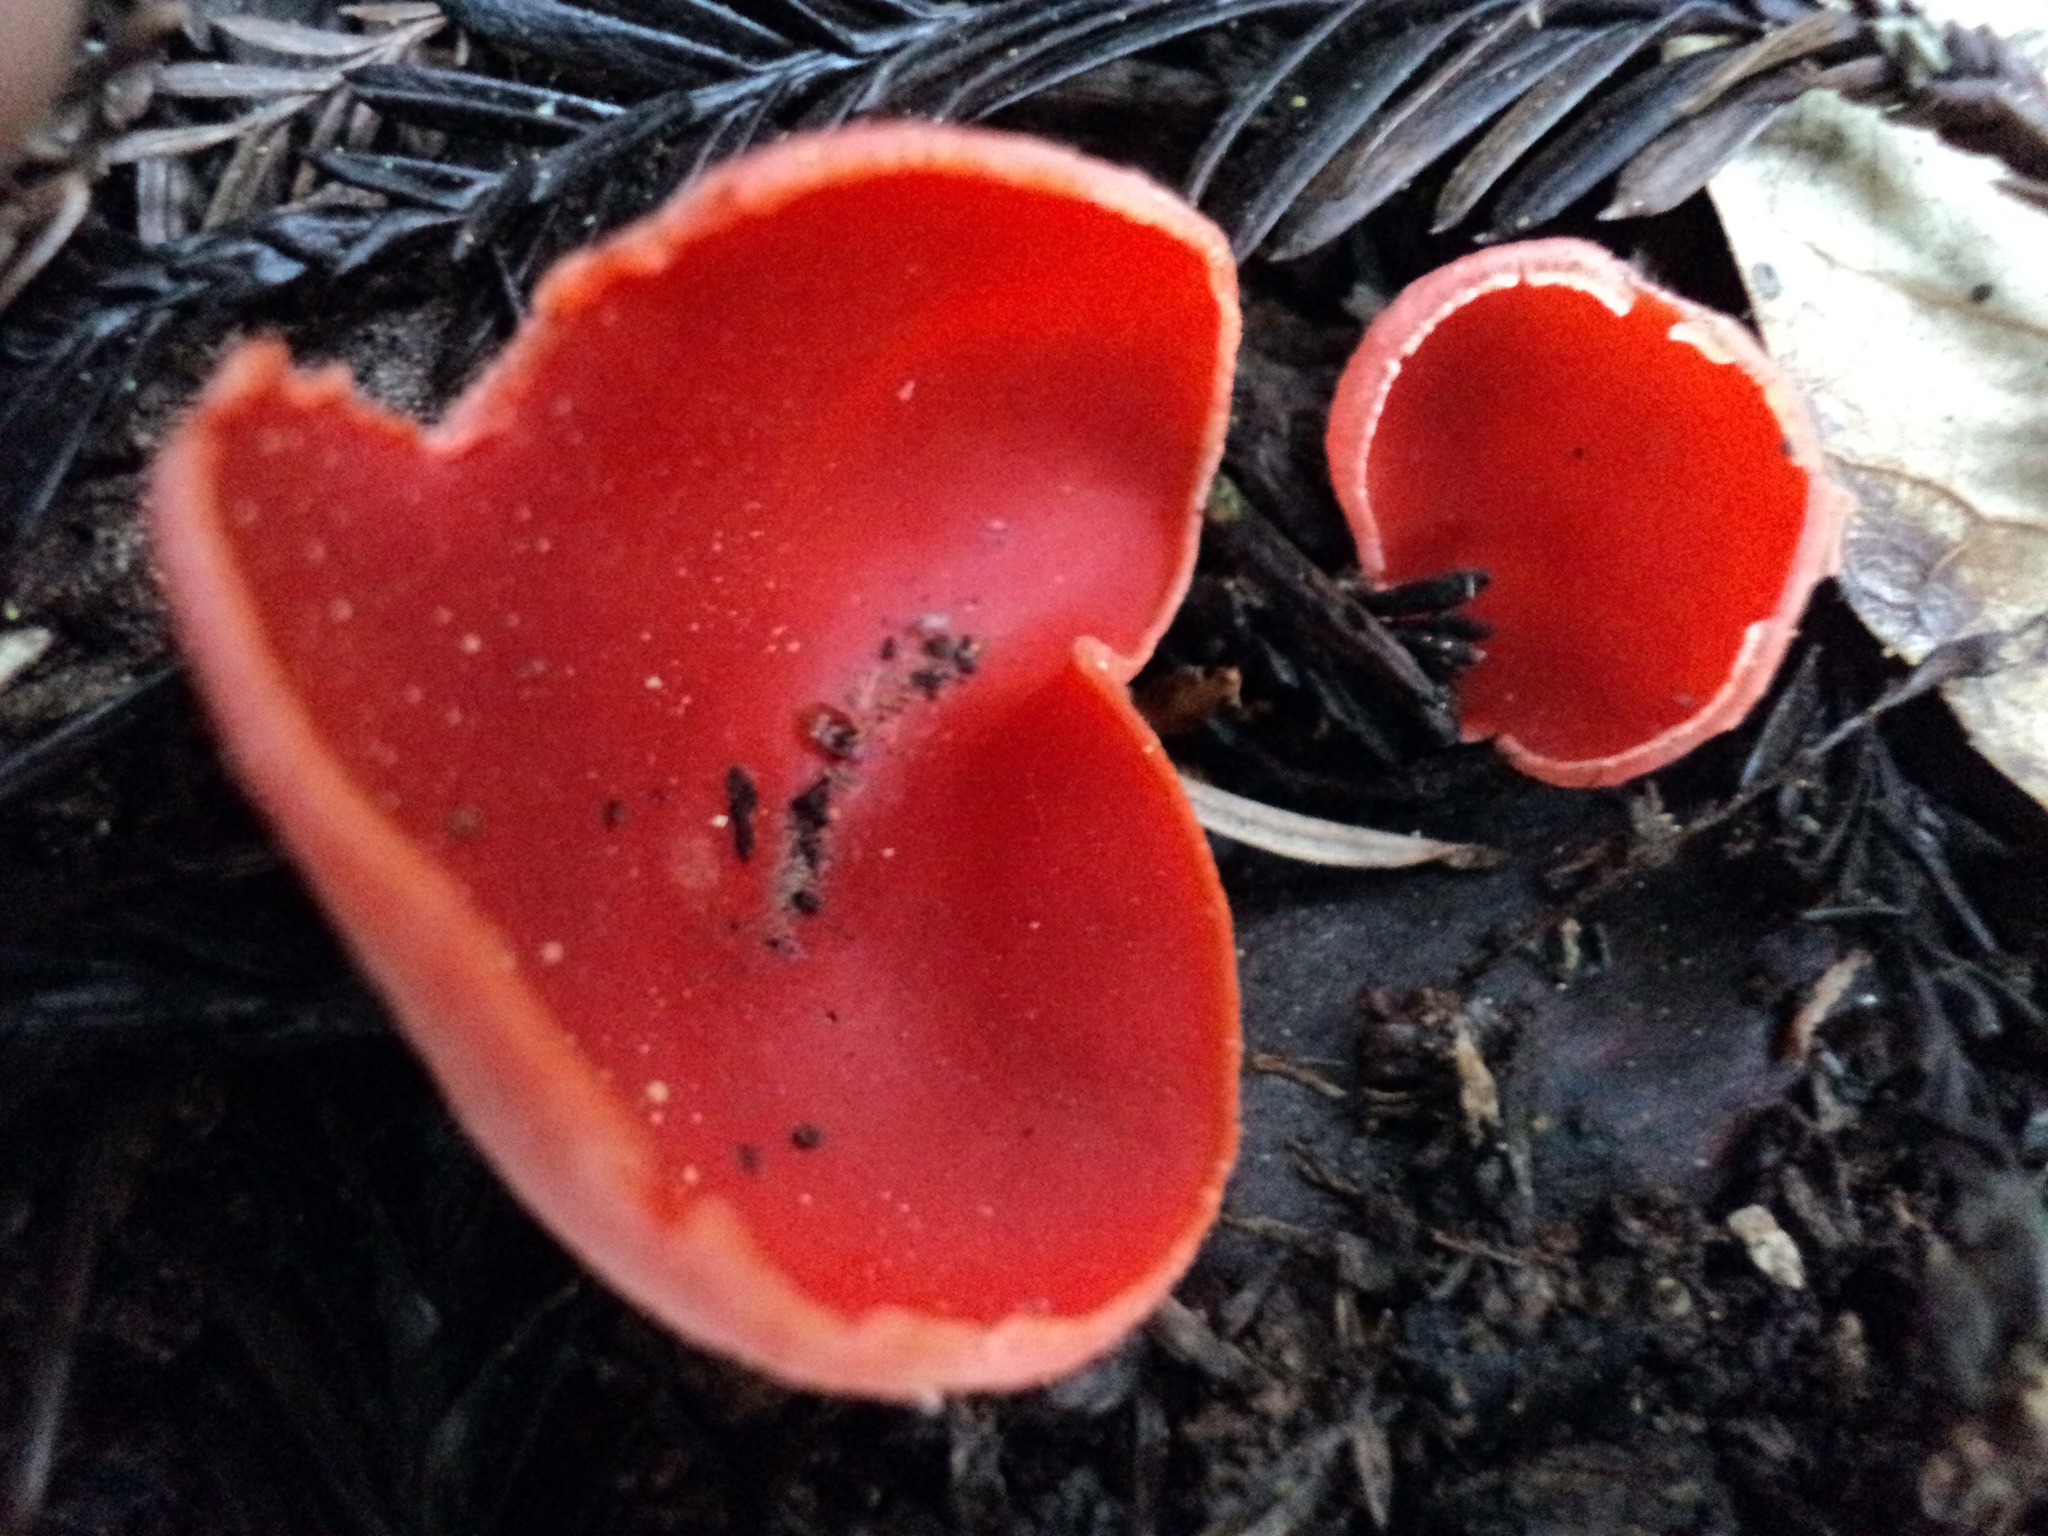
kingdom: Fungi
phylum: Ascomycota
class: Pezizomycetes
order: Pezizales
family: Sarcoscyphaceae
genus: Sarcoscypha
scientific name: Sarcoscypha coccinea
